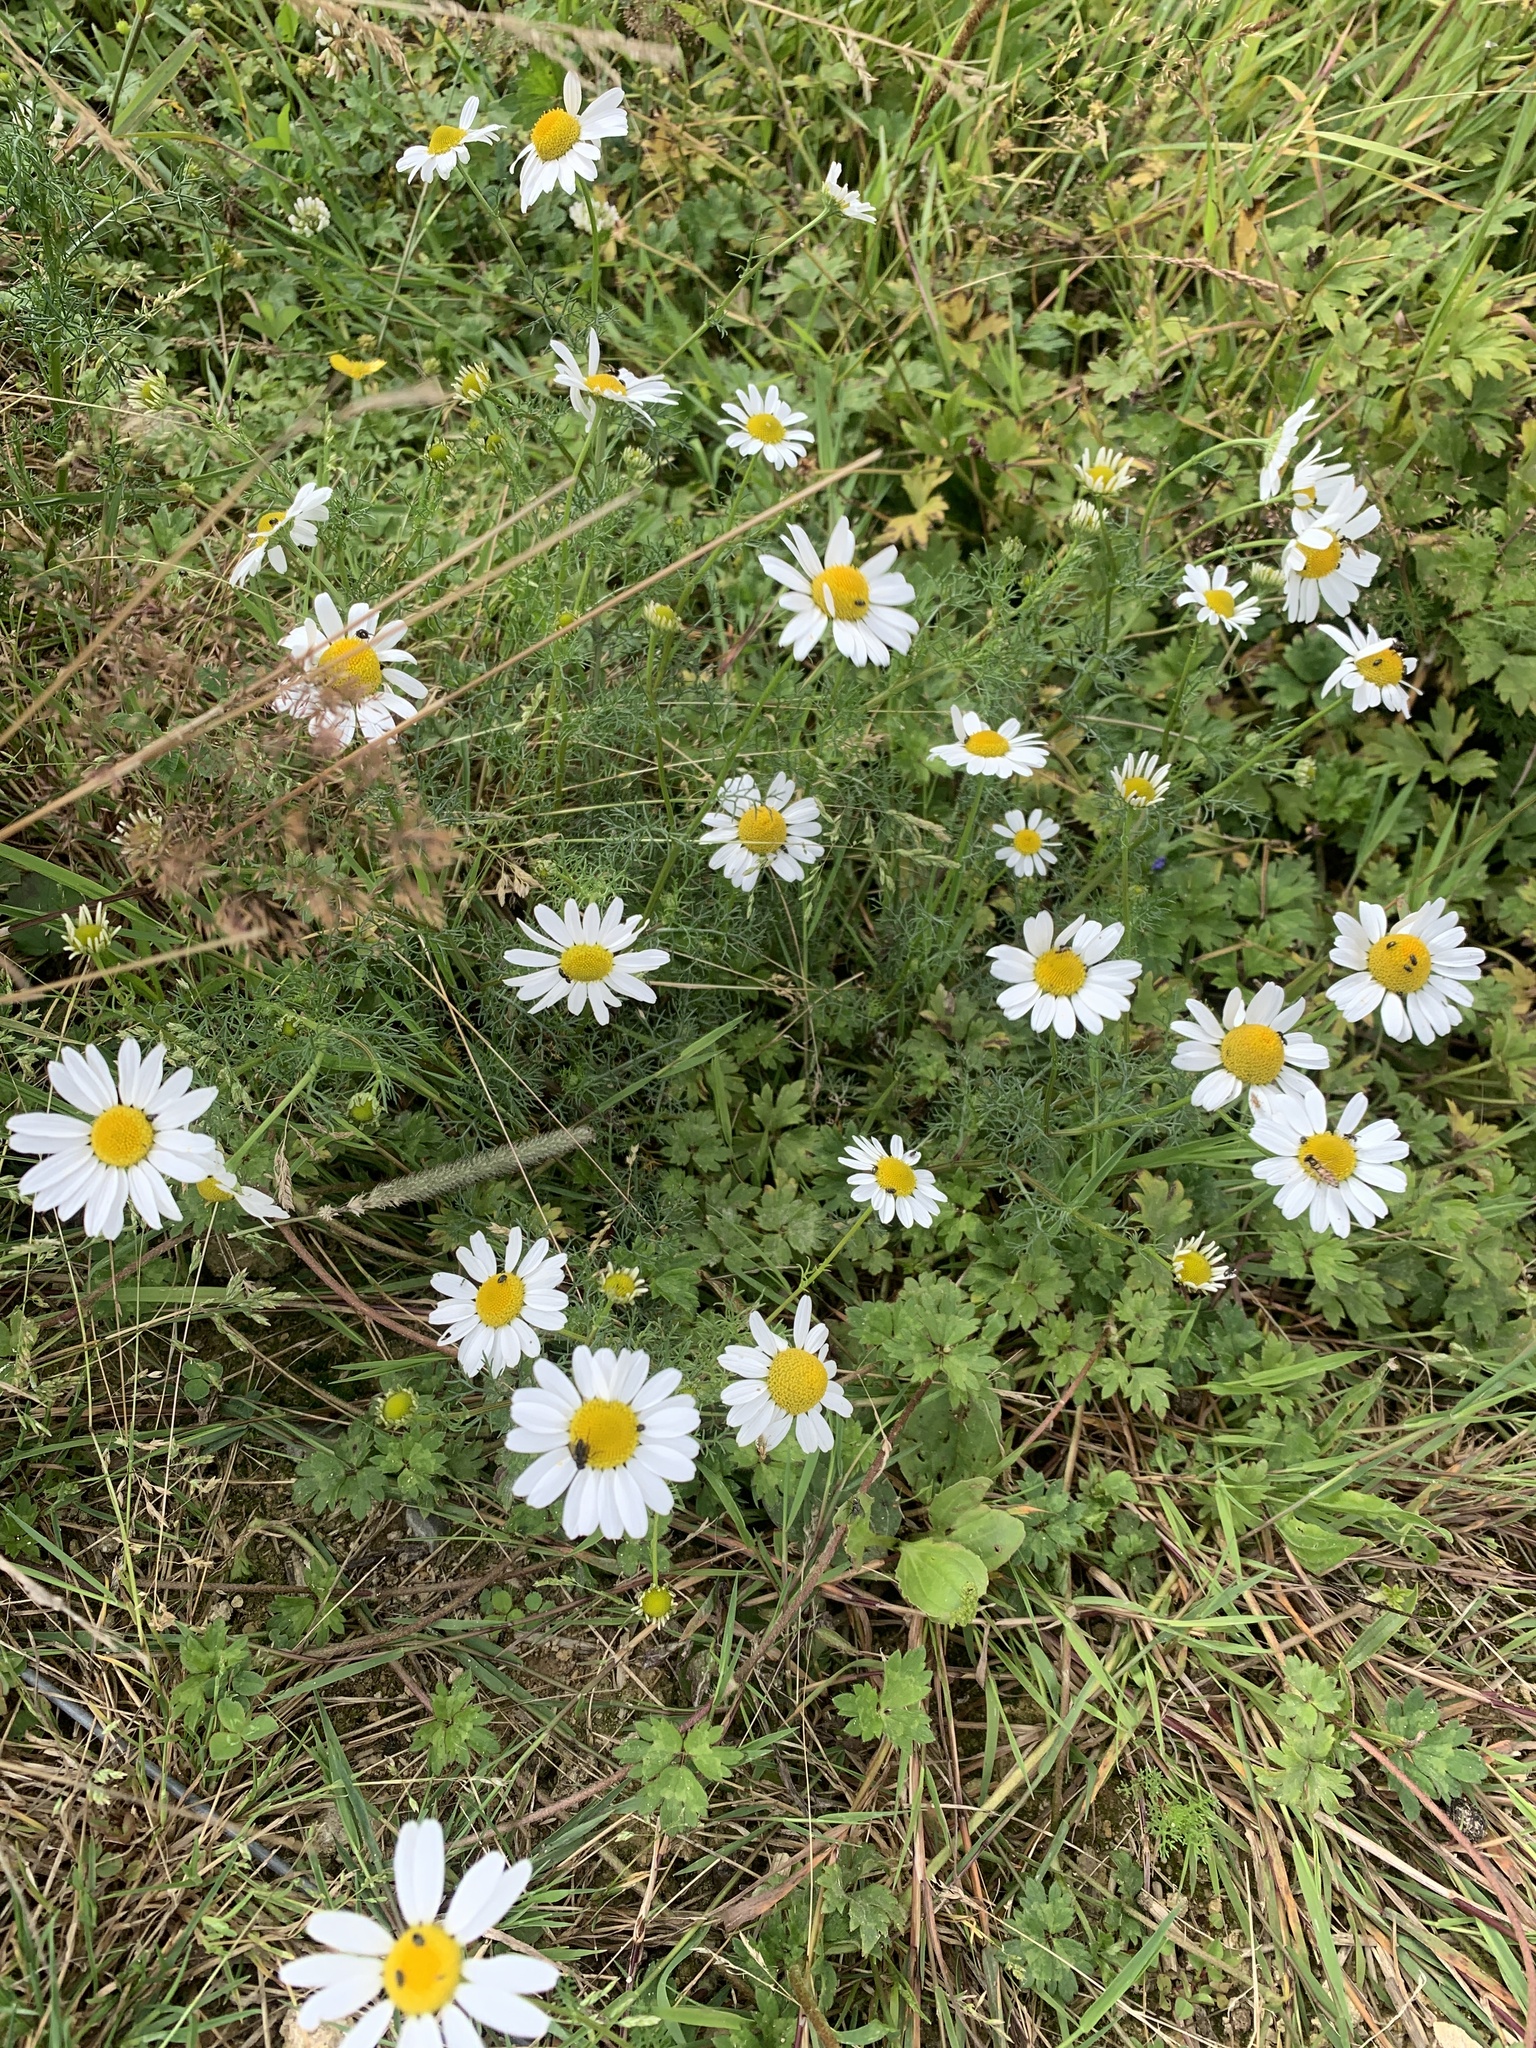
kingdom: Plantae
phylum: Tracheophyta
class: Magnoliopsida
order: Asterales
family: Asteraceae
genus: Leucanthemum
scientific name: Leucanthemum vulgare
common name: Oxeye daisy
